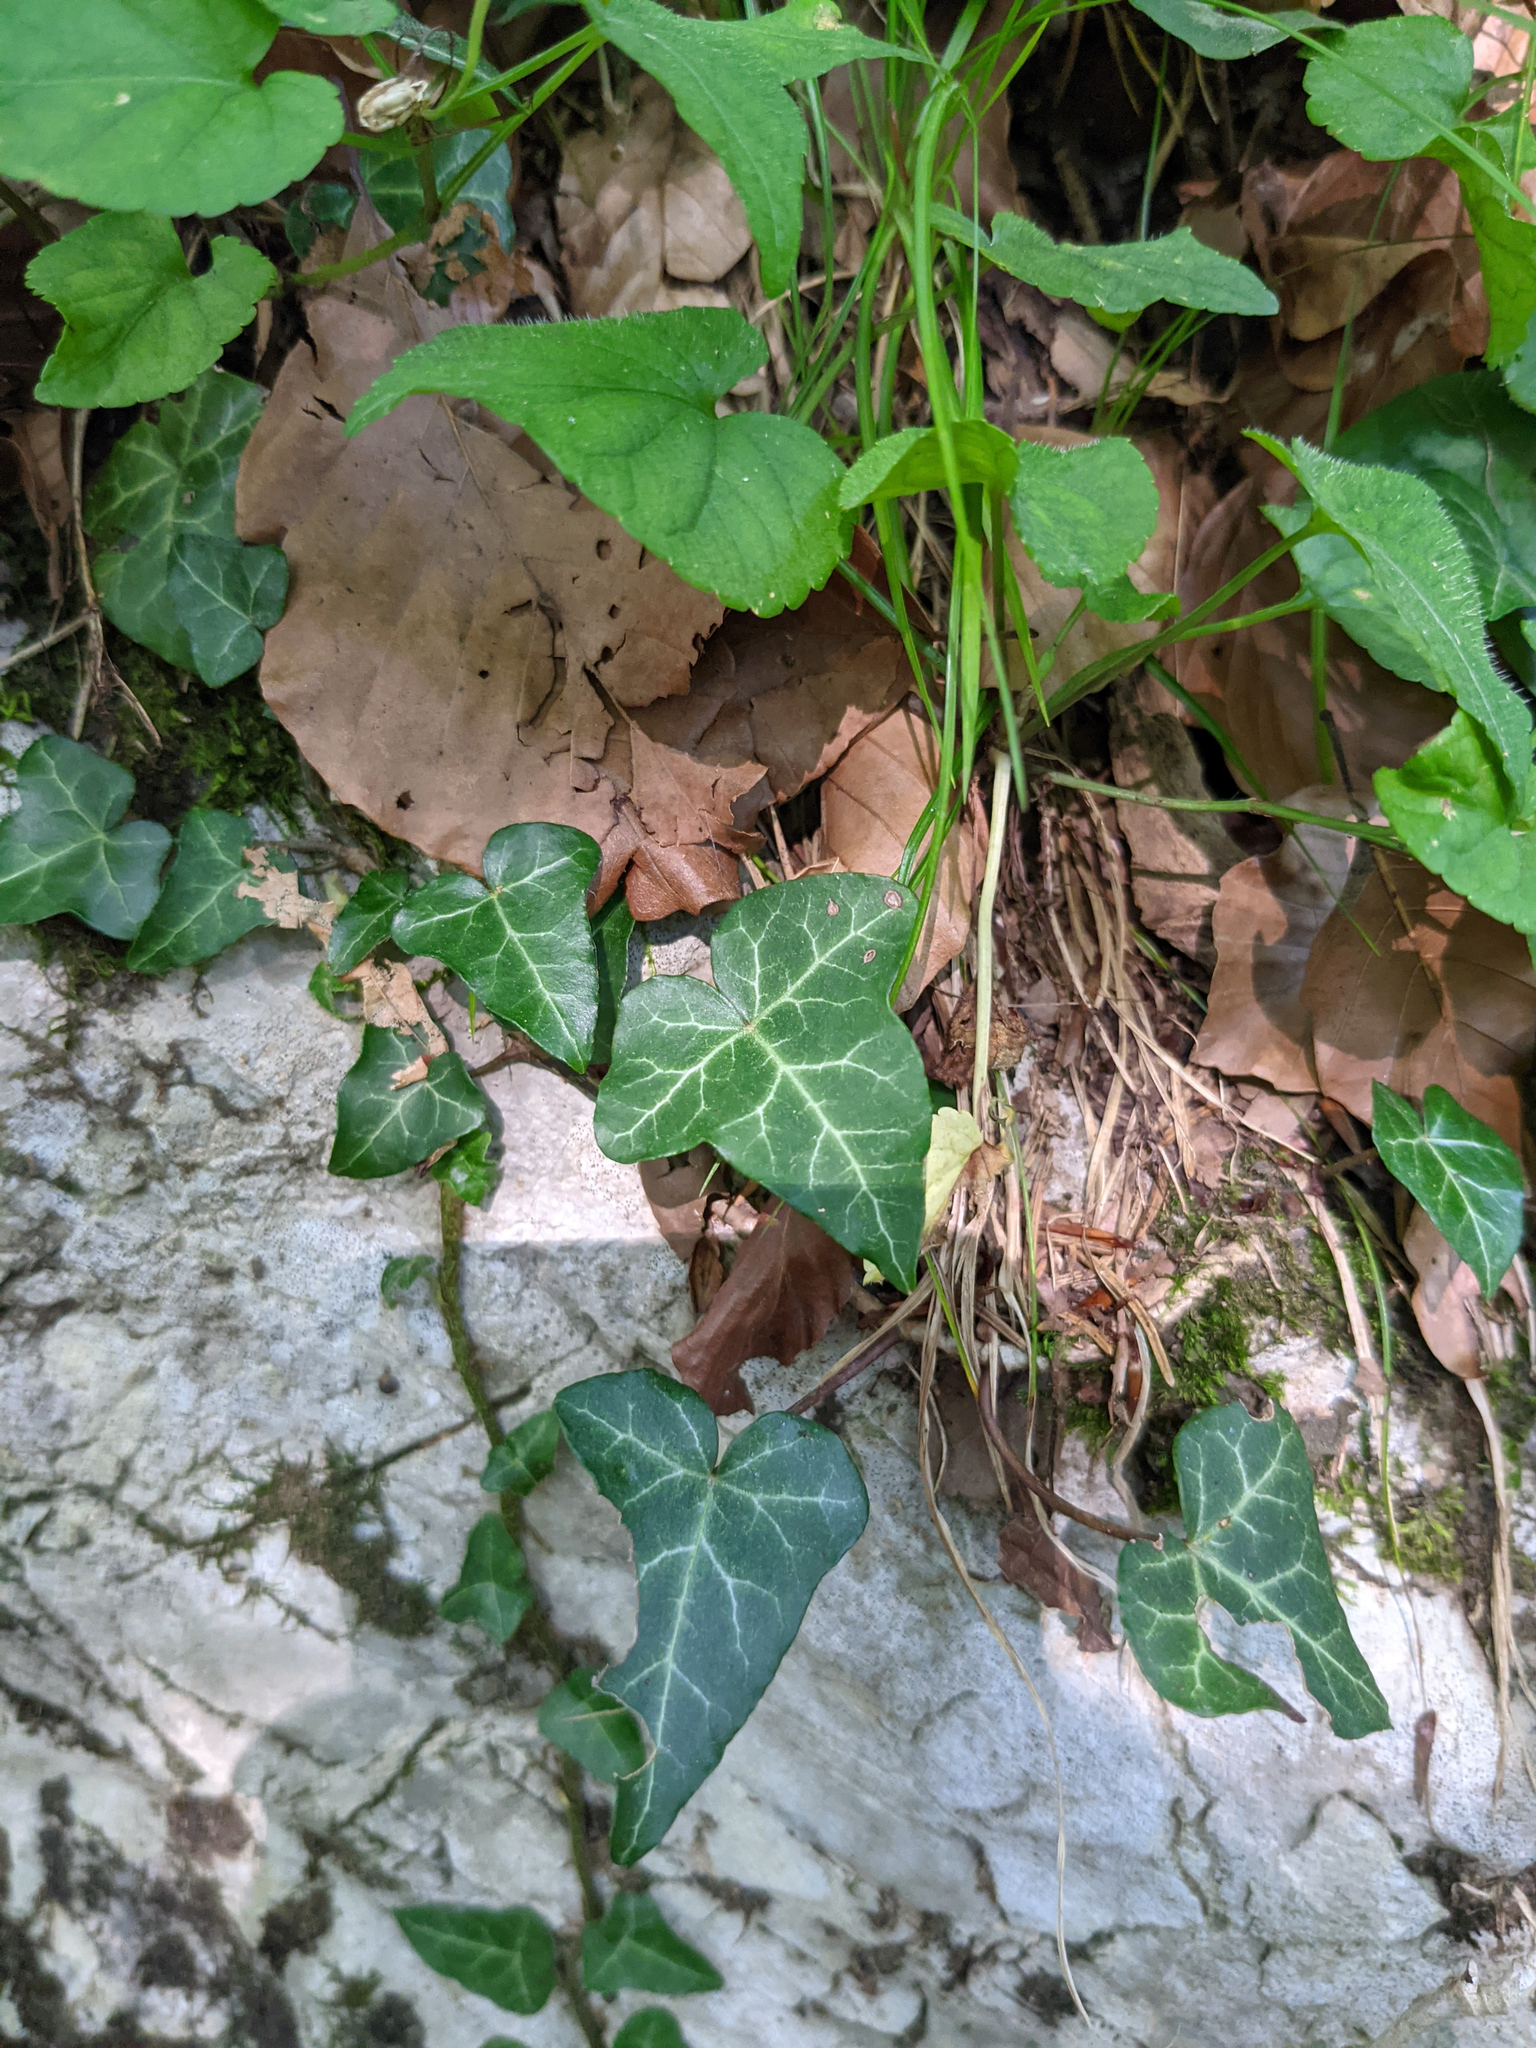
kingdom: Plantae
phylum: Tracheophyta
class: Magnoliopsida
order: Apiales
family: Araliaceae
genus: Hedera
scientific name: Hedera helix
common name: Ivy
